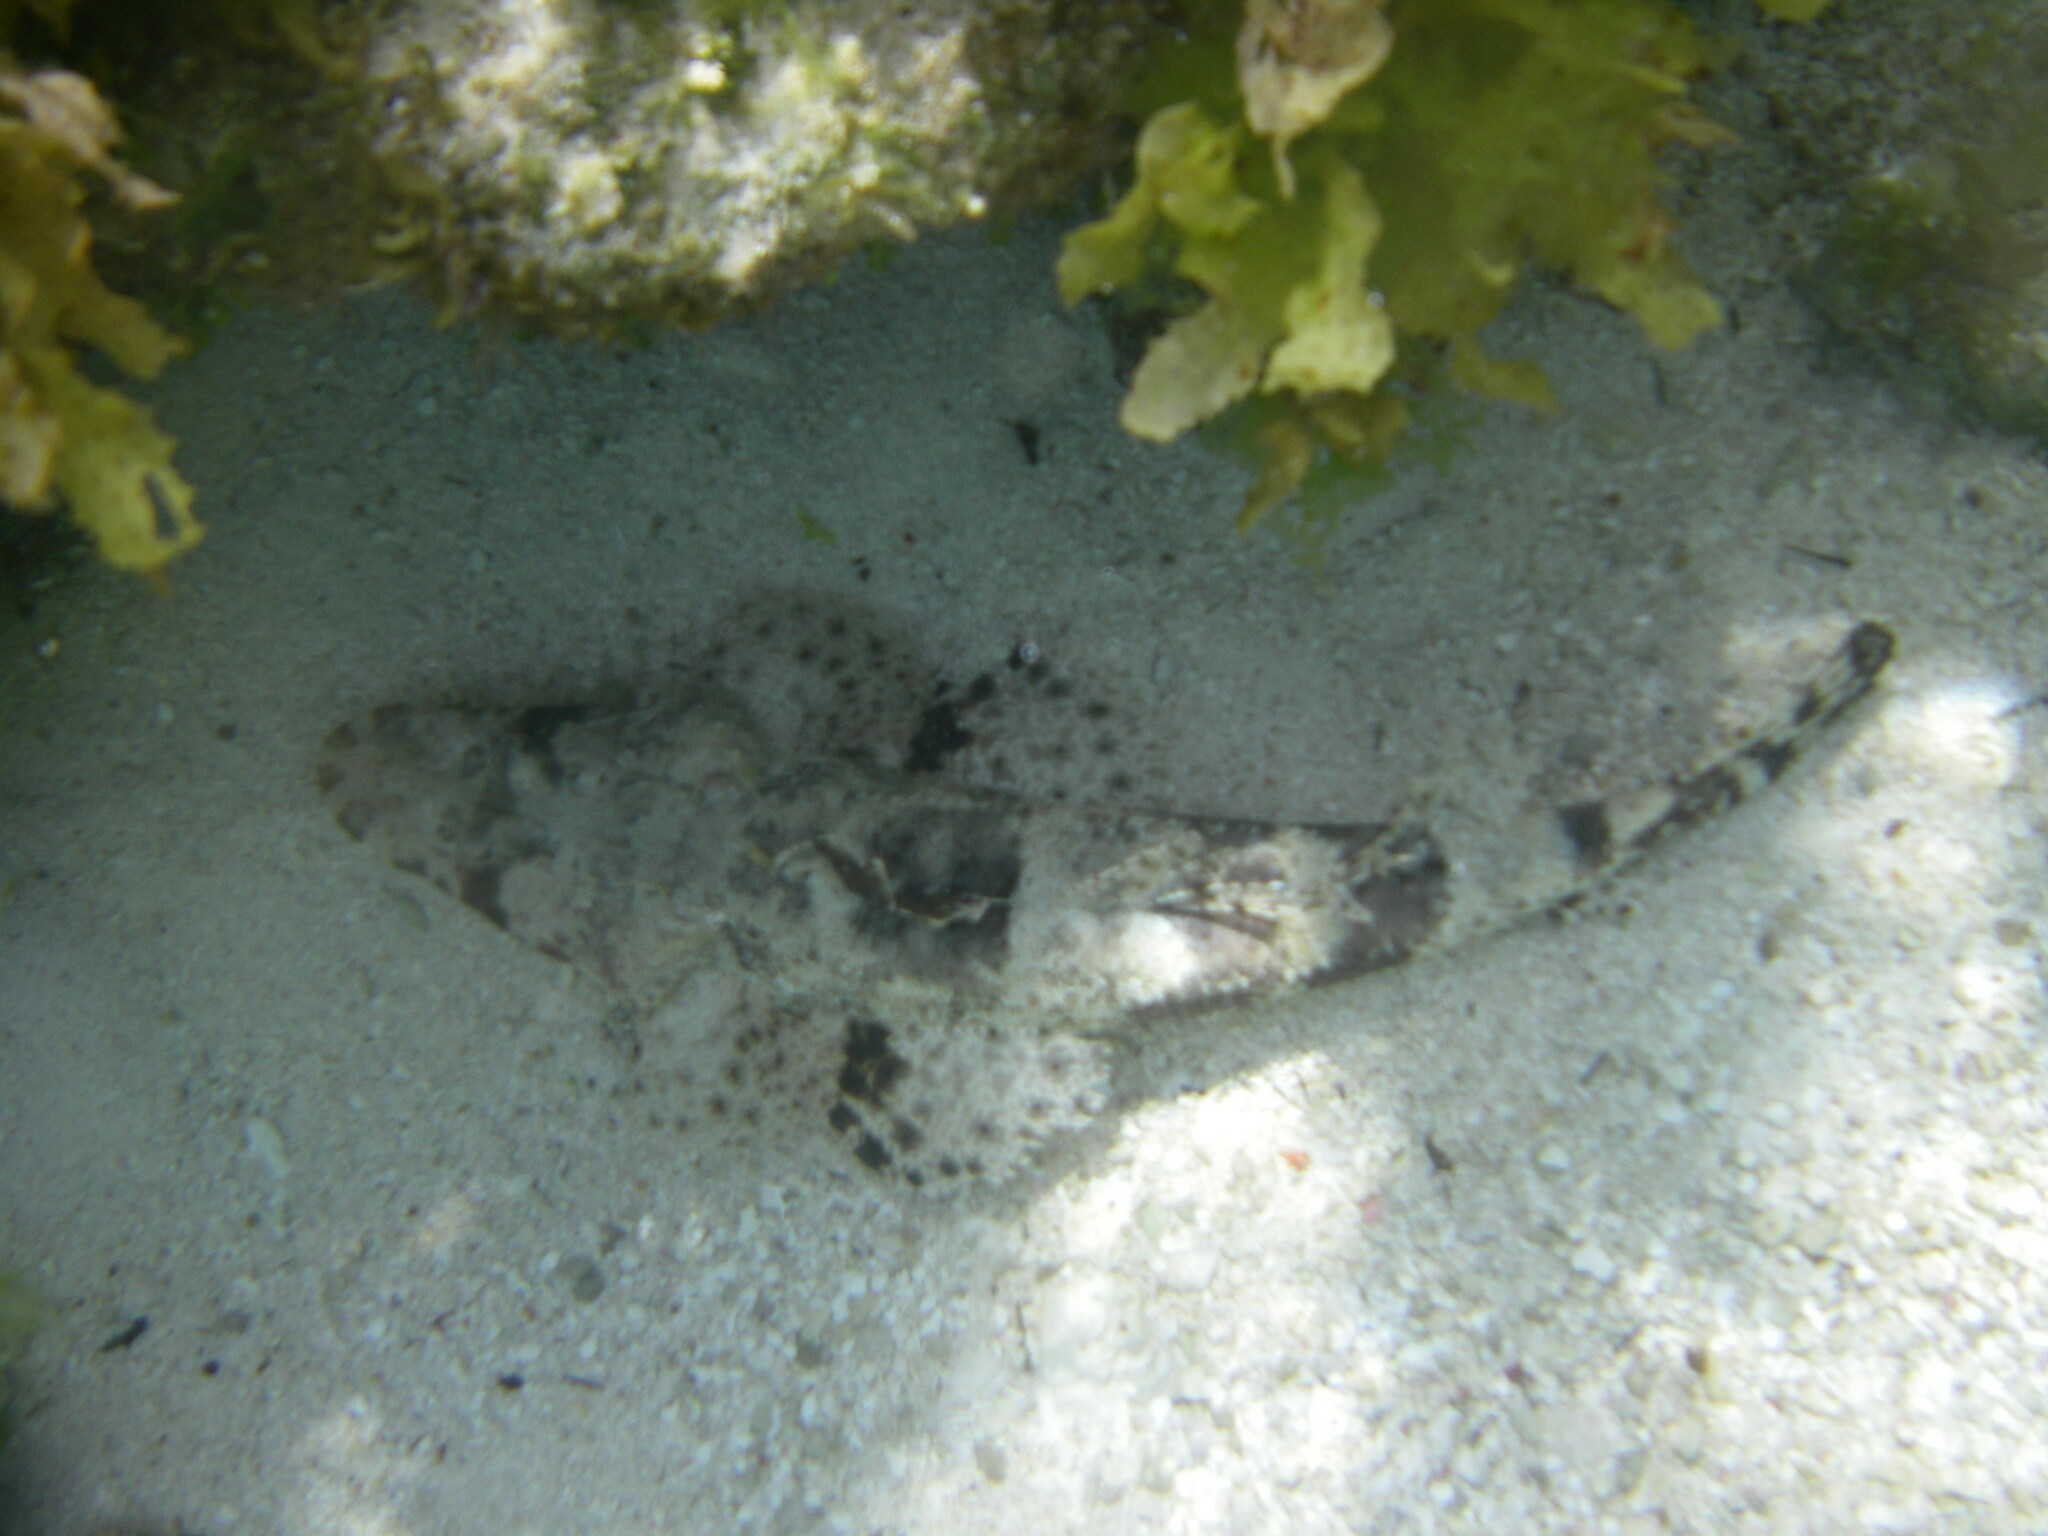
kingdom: Animalia
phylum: Chordata
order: Scorpaeniformes
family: Platycephalidae
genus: Papilloculiceps
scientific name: Papilloculiceps longiceps
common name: Tentacled flathead
